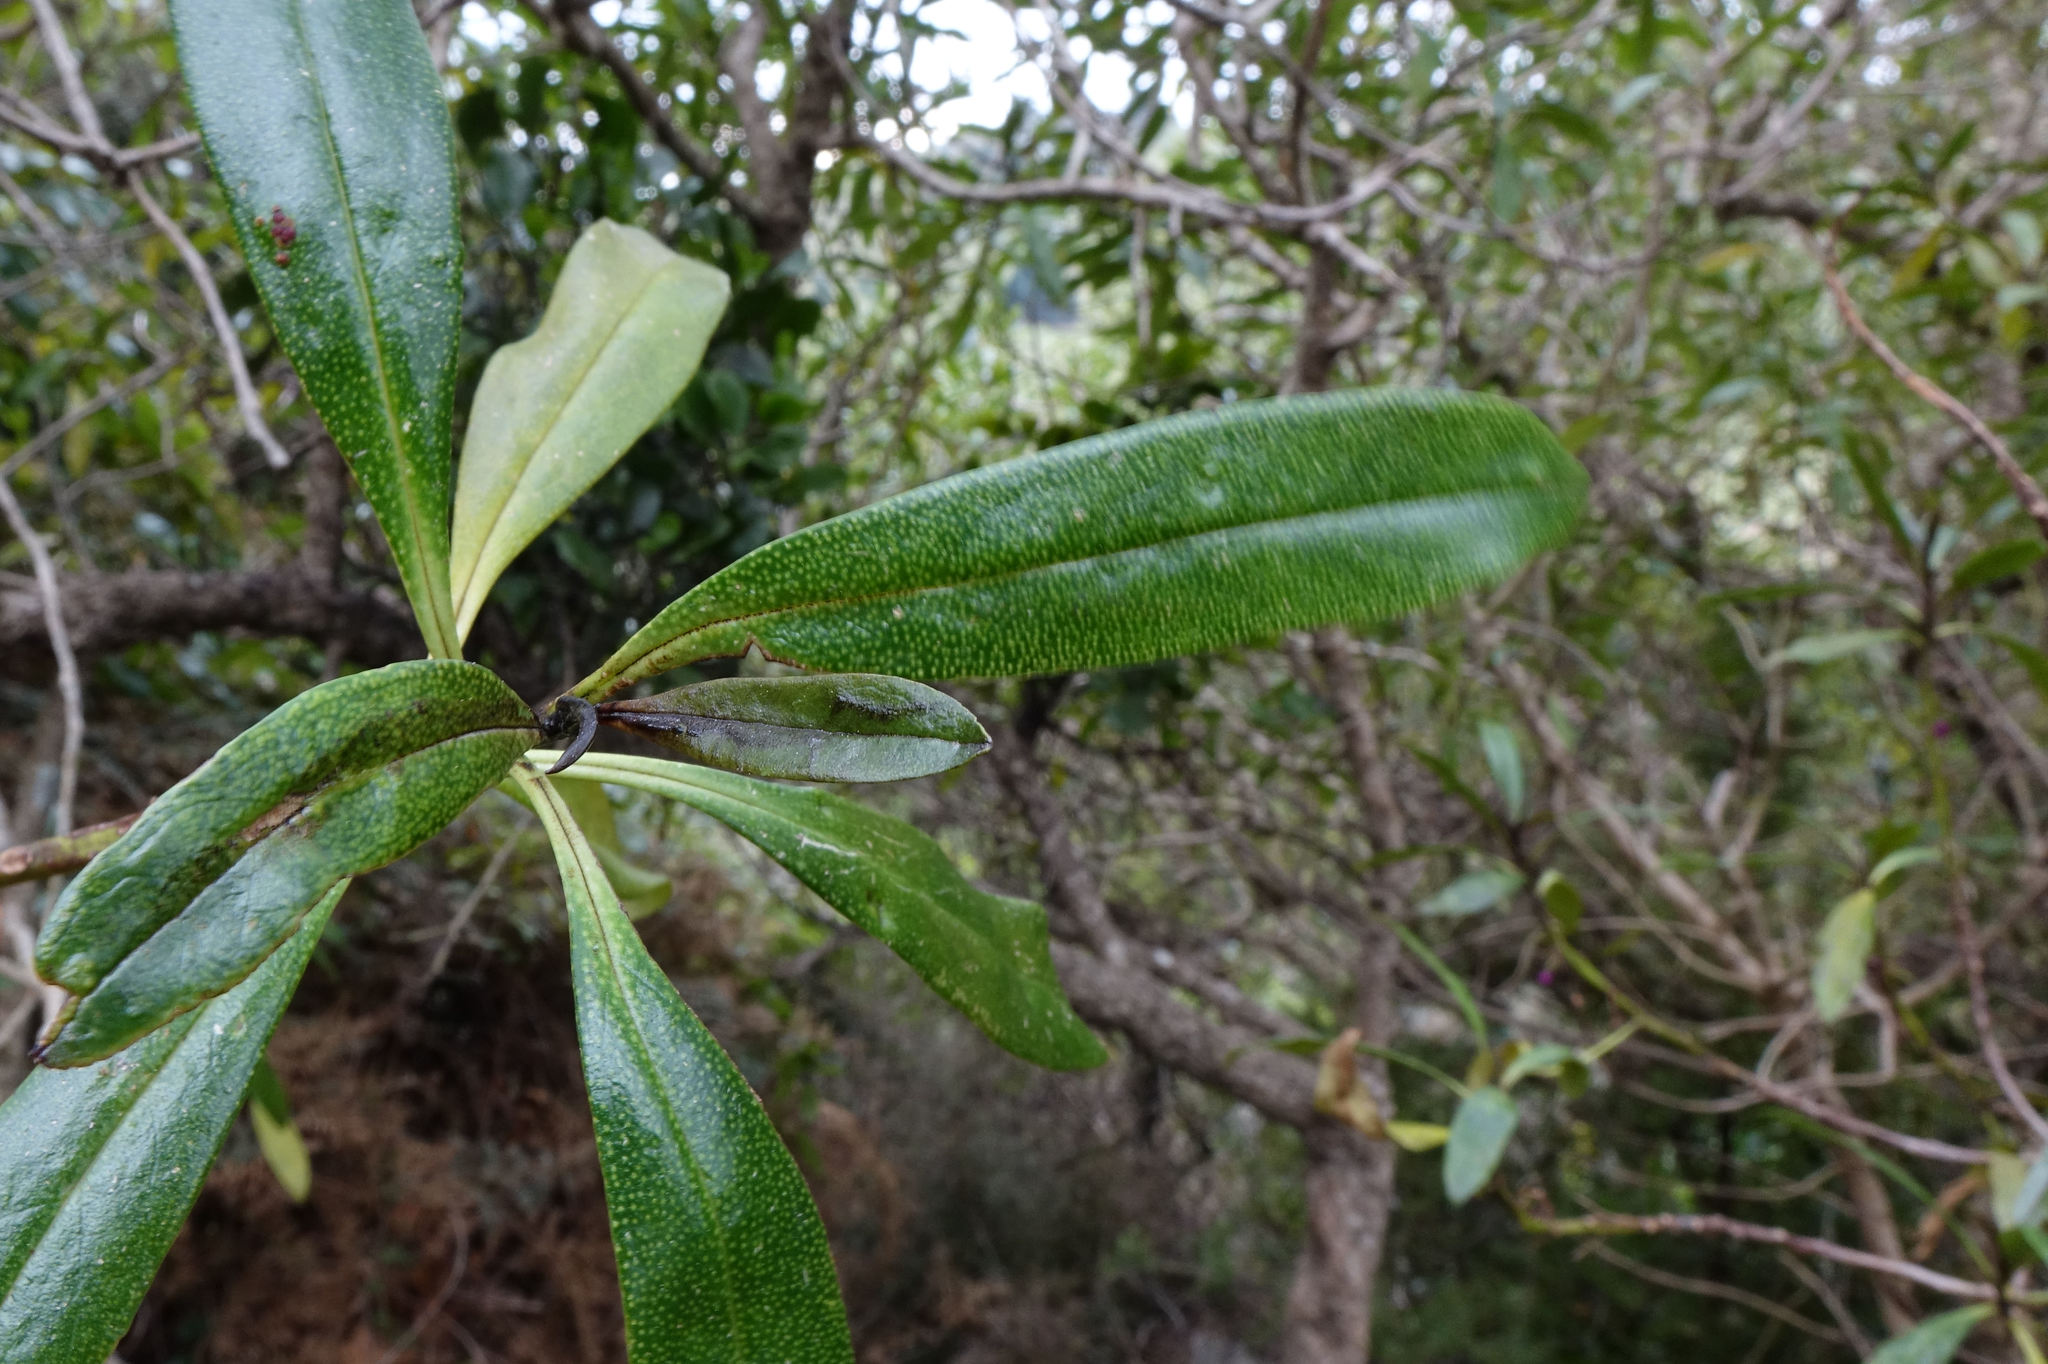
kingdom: Plantae
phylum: Tracheophyta
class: Magnoliopsida
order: Santalales
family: Loranthaceae
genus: Ileostylus
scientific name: Ileostylus micranthus
